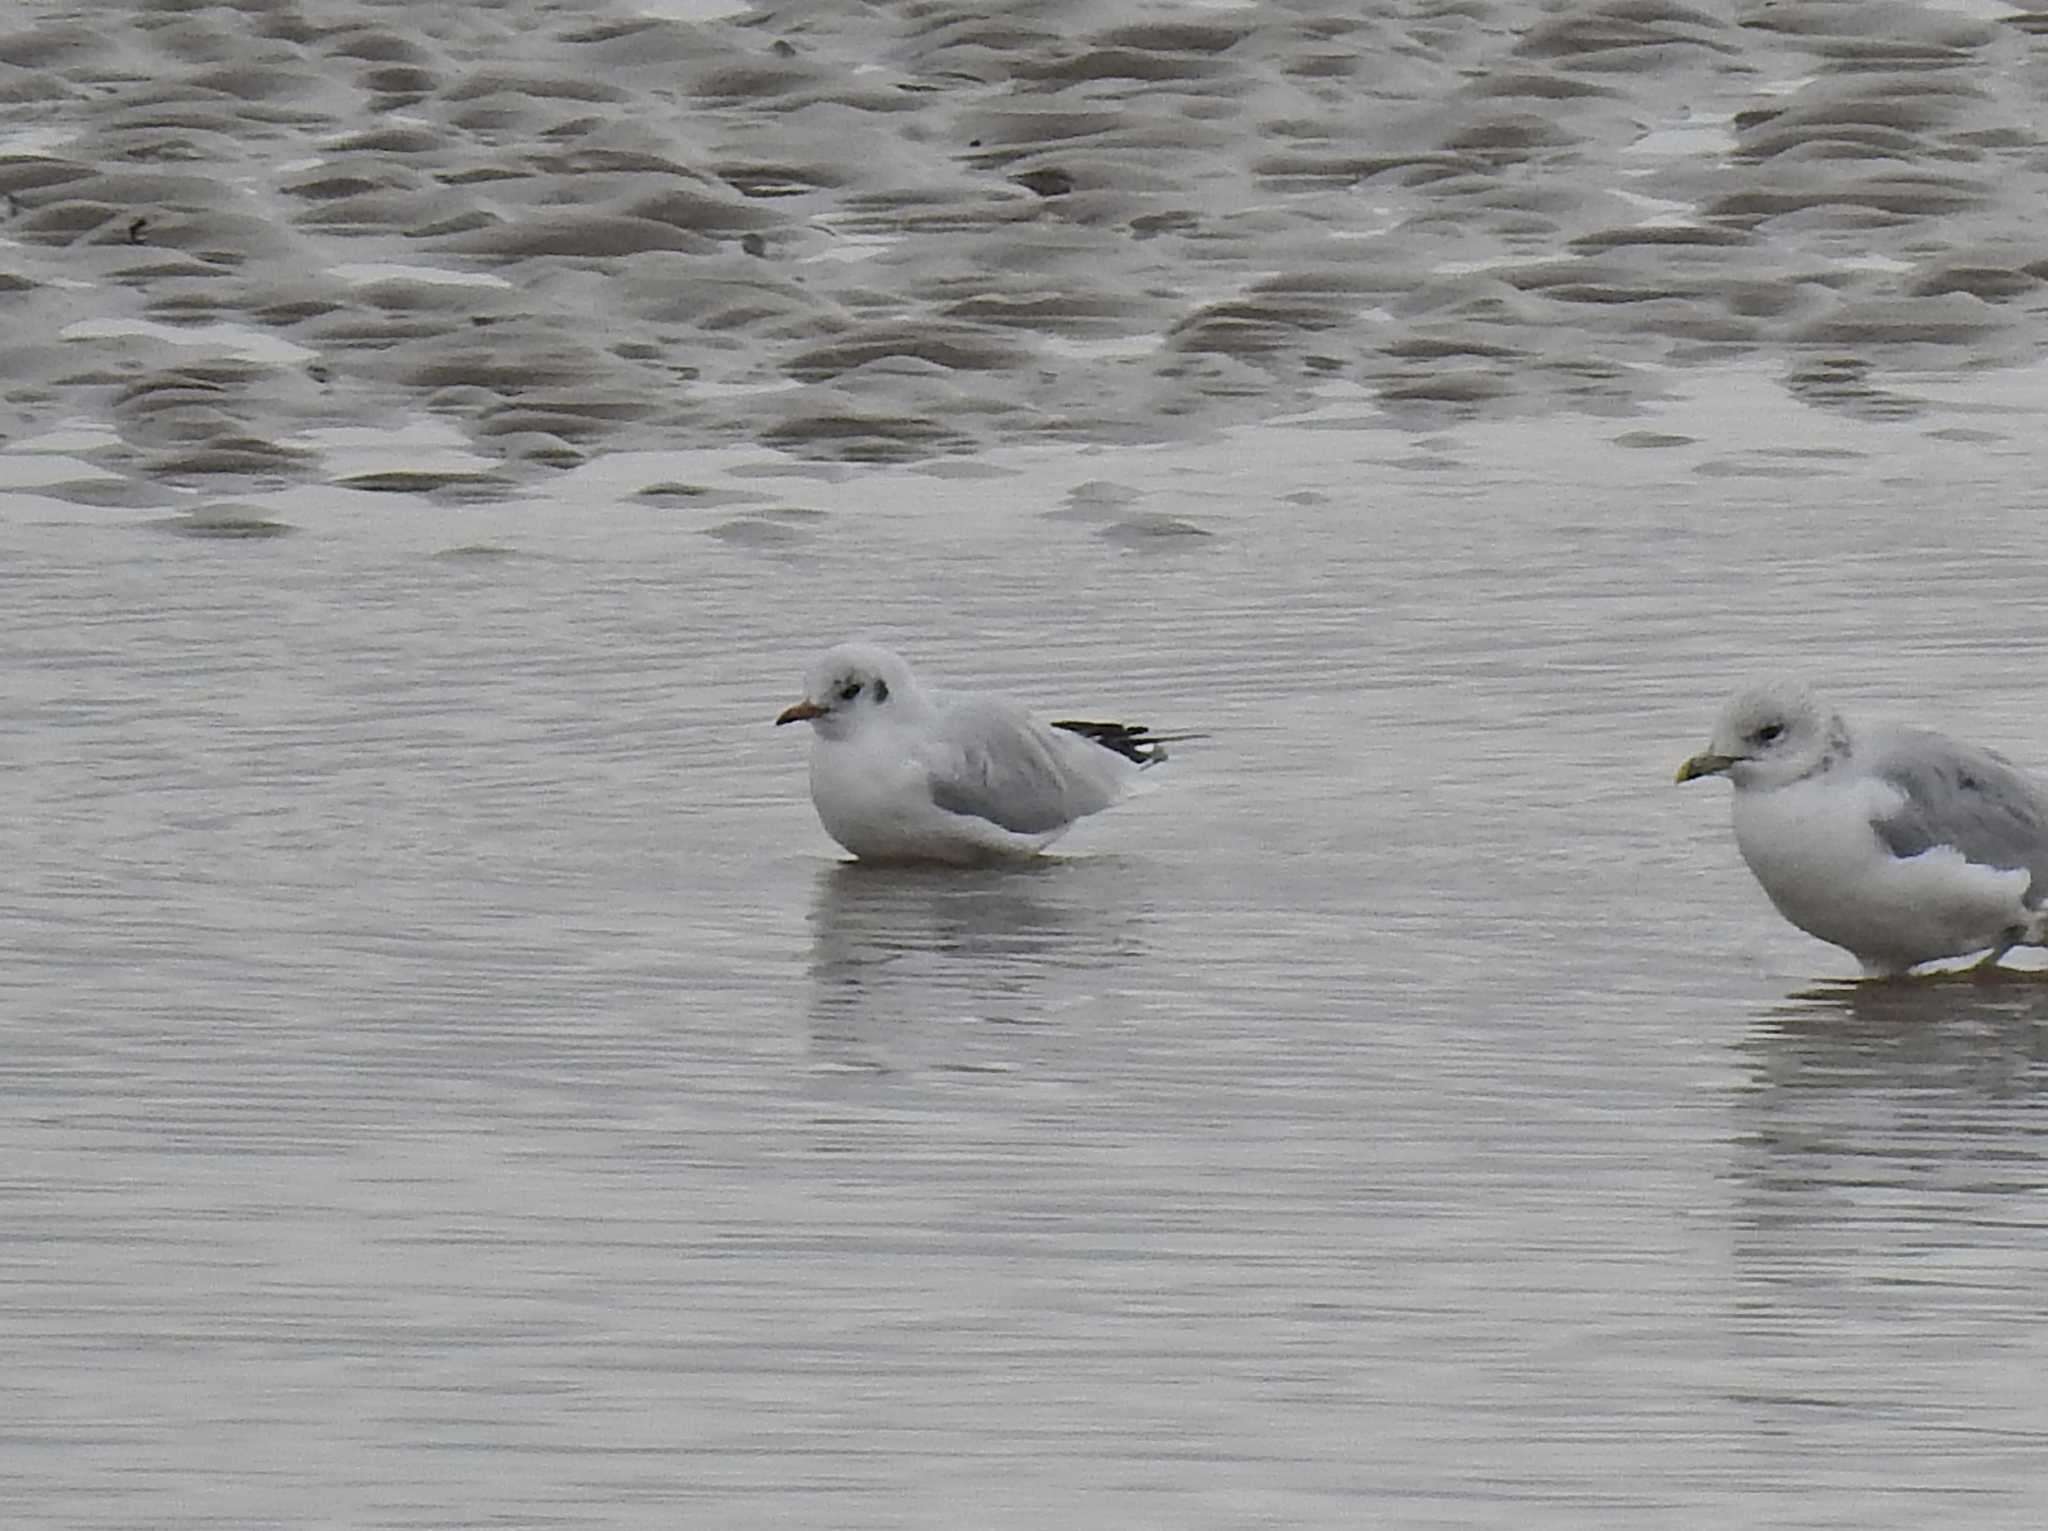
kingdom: Animalia
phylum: Chordata
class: Aves
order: Charadriiformes
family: Laridae
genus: Chroicocephalus
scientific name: Chroicocephalus ridibundus
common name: Black-headed gull
